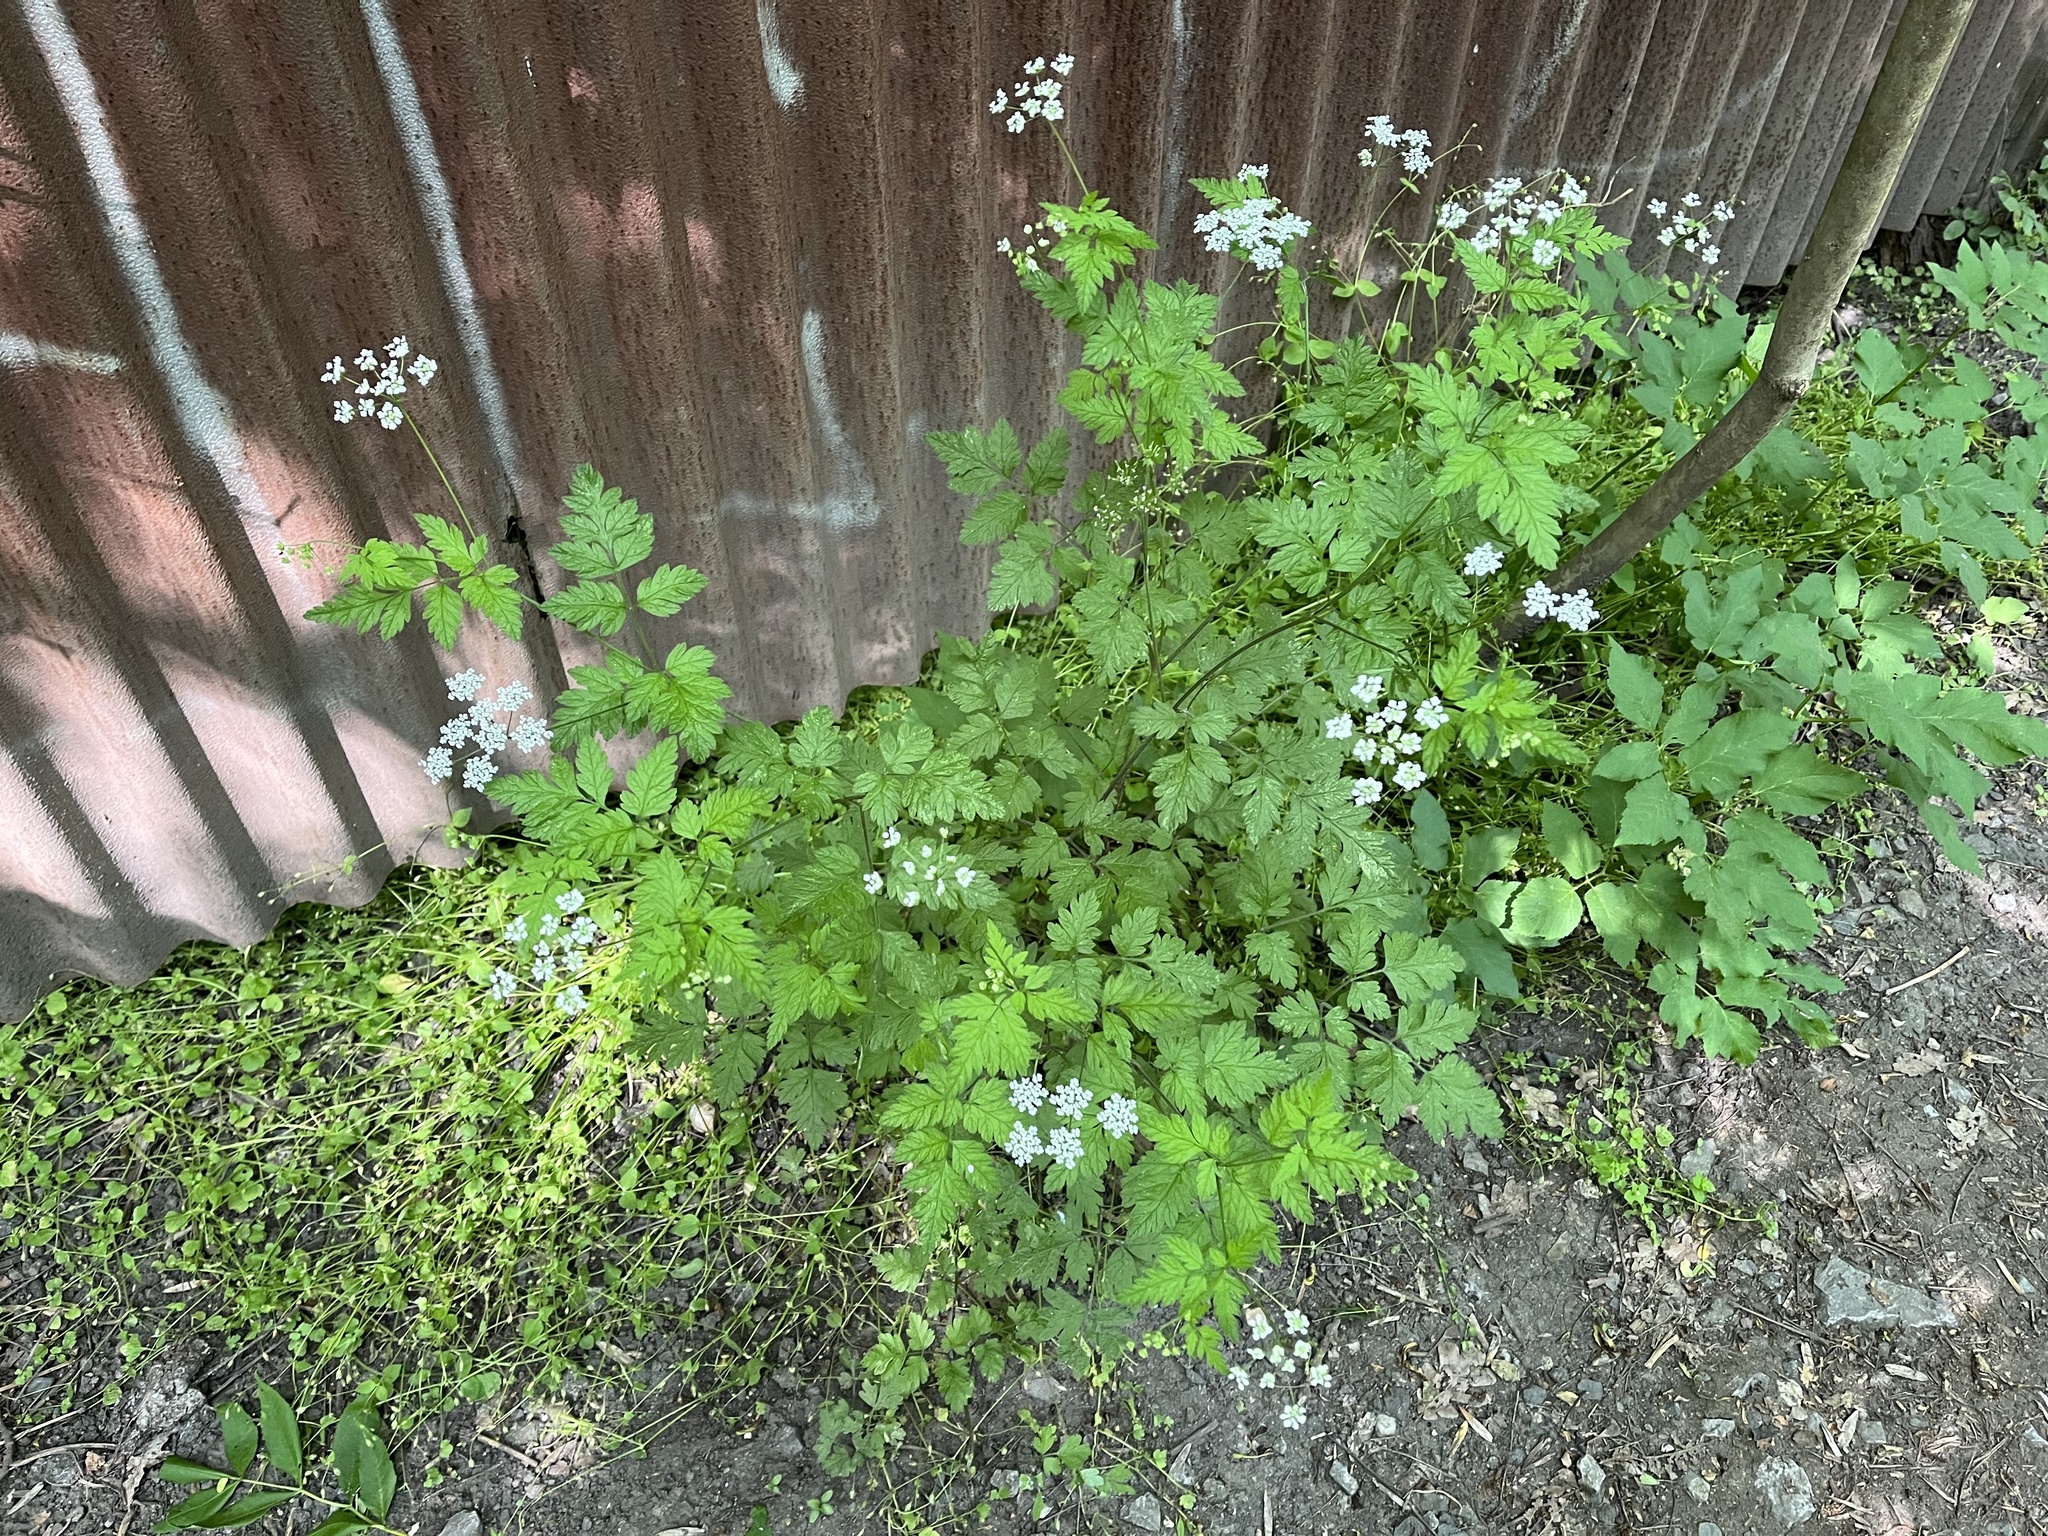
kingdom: Plantae
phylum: Tracheophyta
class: Magnoliopsida
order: Apiales
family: Apiaceae
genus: Chaerophyllum
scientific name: Chaerophyllum temulum
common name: Rough chervil
